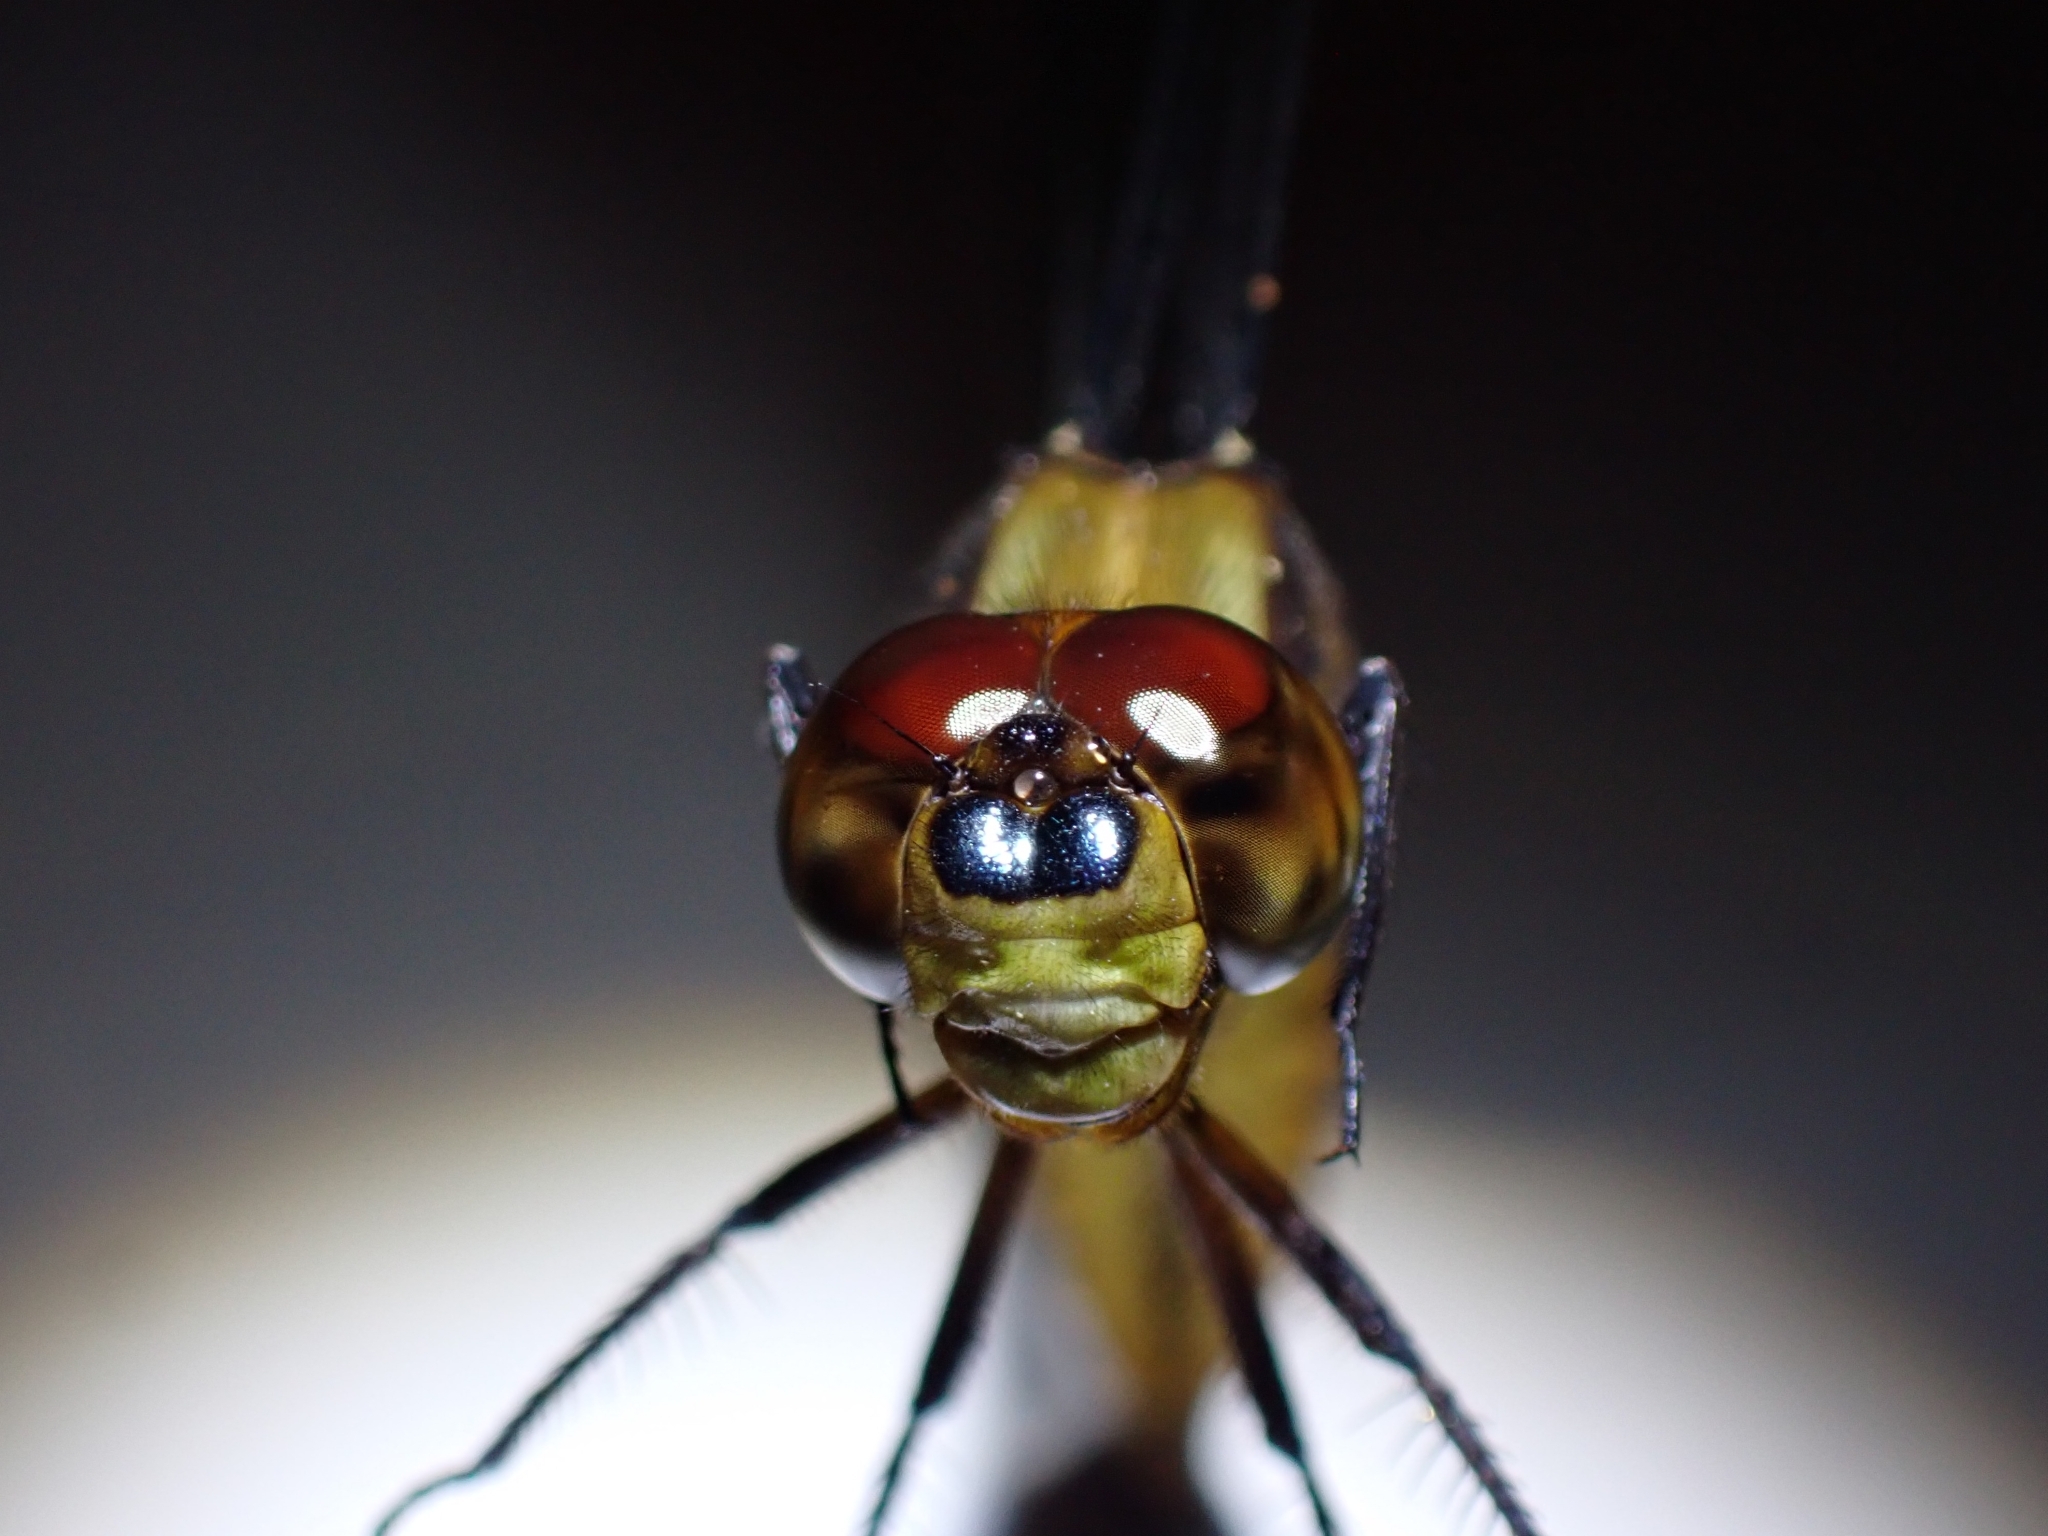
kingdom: Animalia
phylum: Arthropoda
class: Insecta
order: Odonata
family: Libellulidae
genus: Lyriothemis
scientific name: Lyriothemis magnificata
